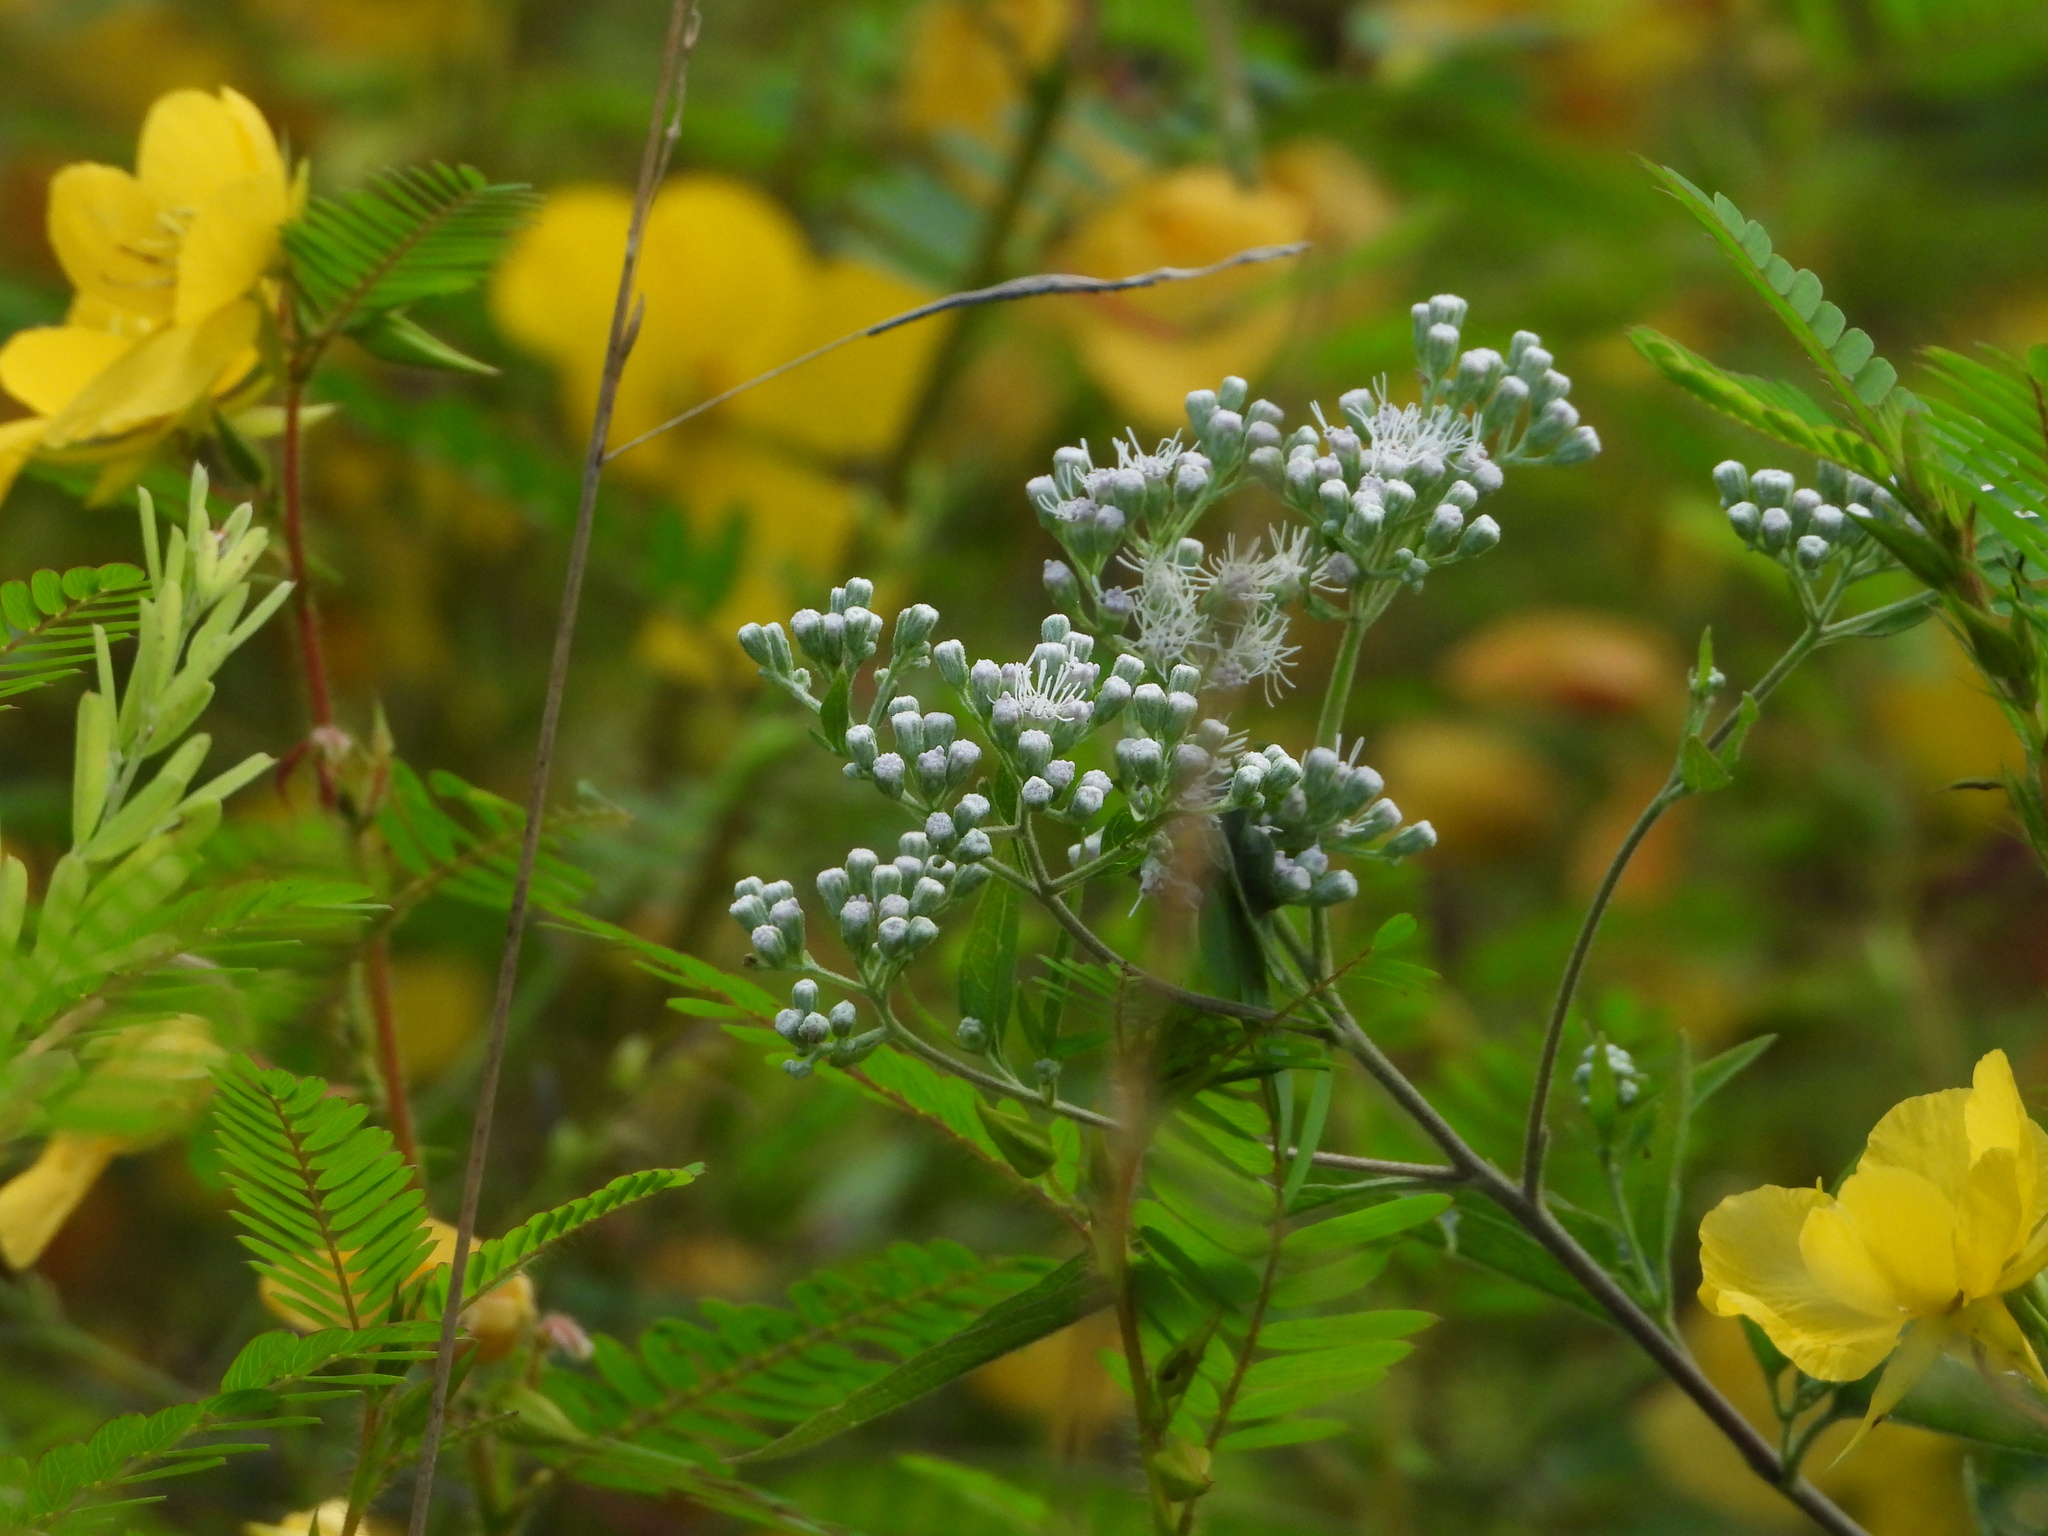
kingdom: Plantae
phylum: Tracheophyta
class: Magnoliopsida
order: Asterales
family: Asteraceae
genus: Eupatorium
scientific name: Eupatorium serotinum
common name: Late boneset
